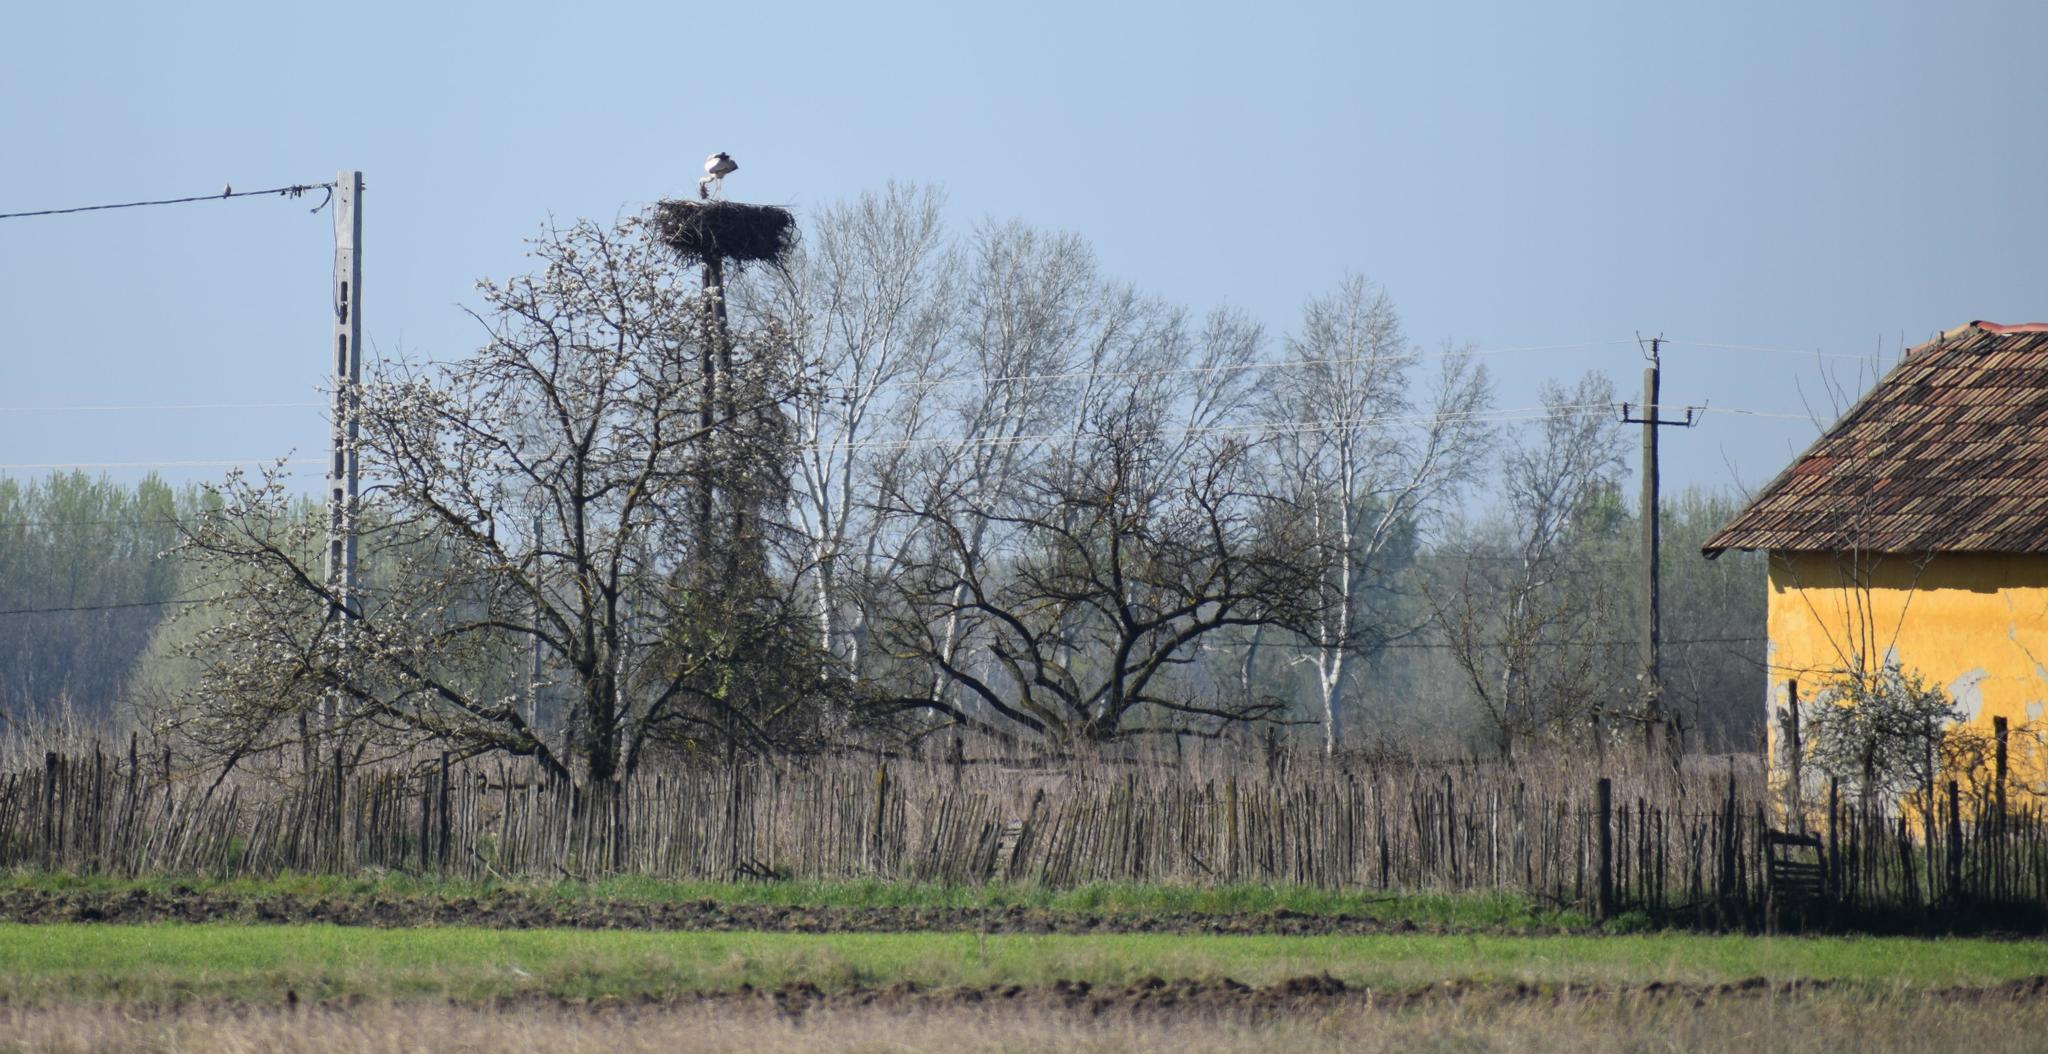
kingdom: Animalia
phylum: Chordata
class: Aves
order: Ciconiiformes
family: Ciconiidae
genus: Ciconia
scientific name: Ciconia ciconia
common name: White stork
